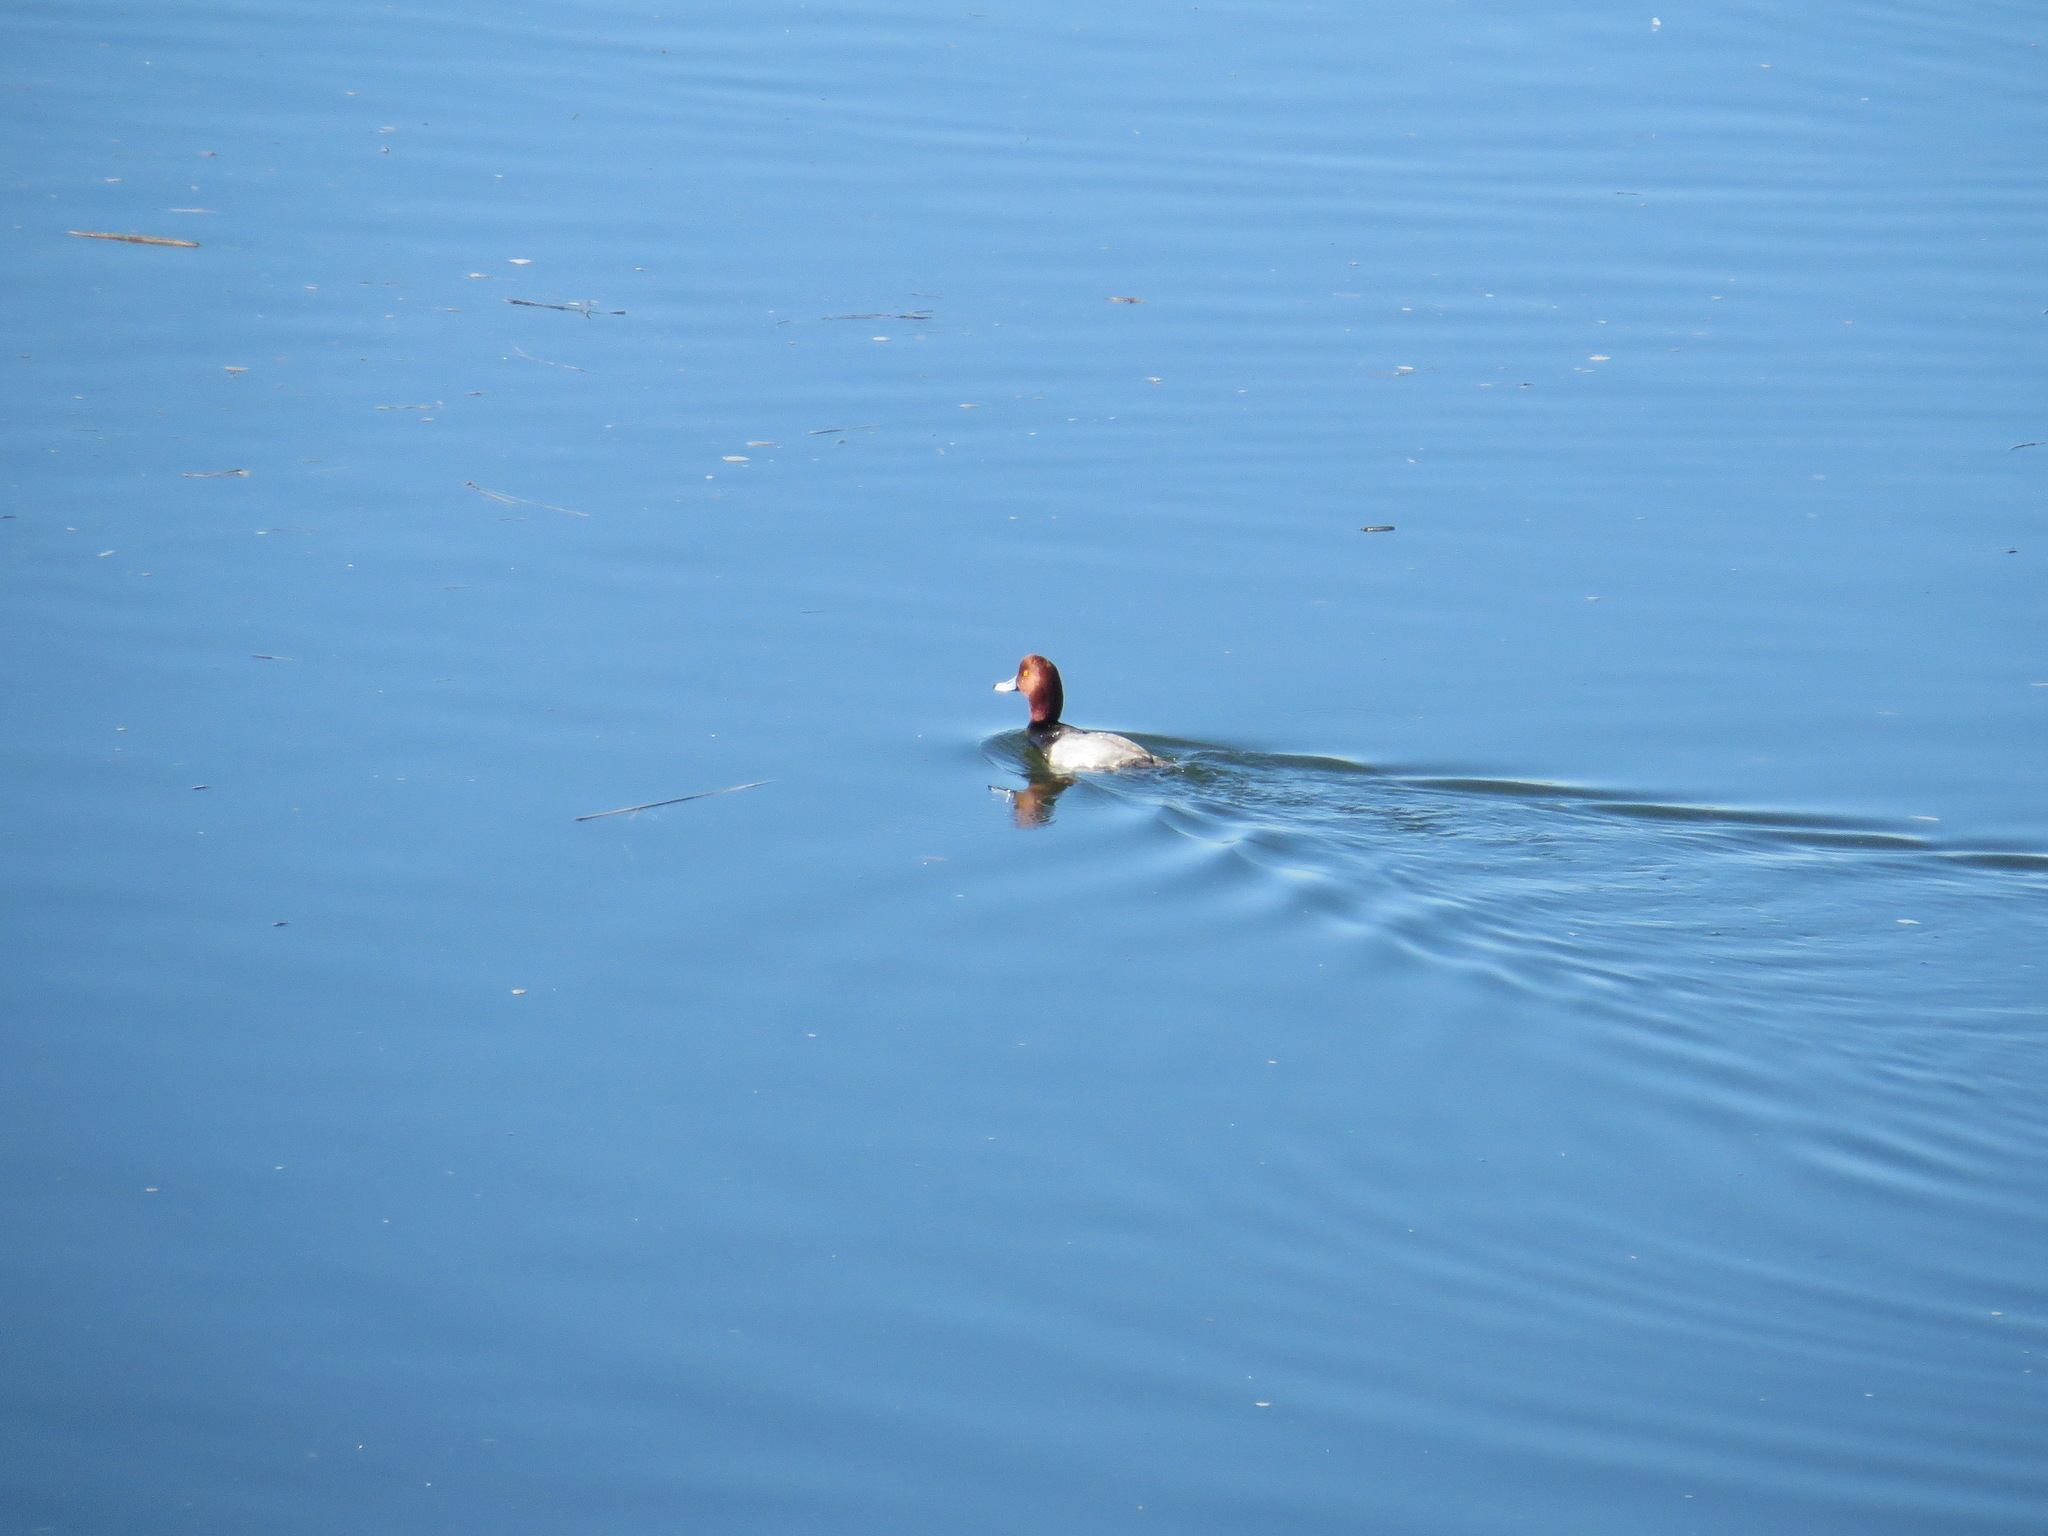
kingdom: Animalia
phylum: Chordata
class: Aves
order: Anseriformes
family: Anatidae
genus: Aythya
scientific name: Aythya americana
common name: Redhead
